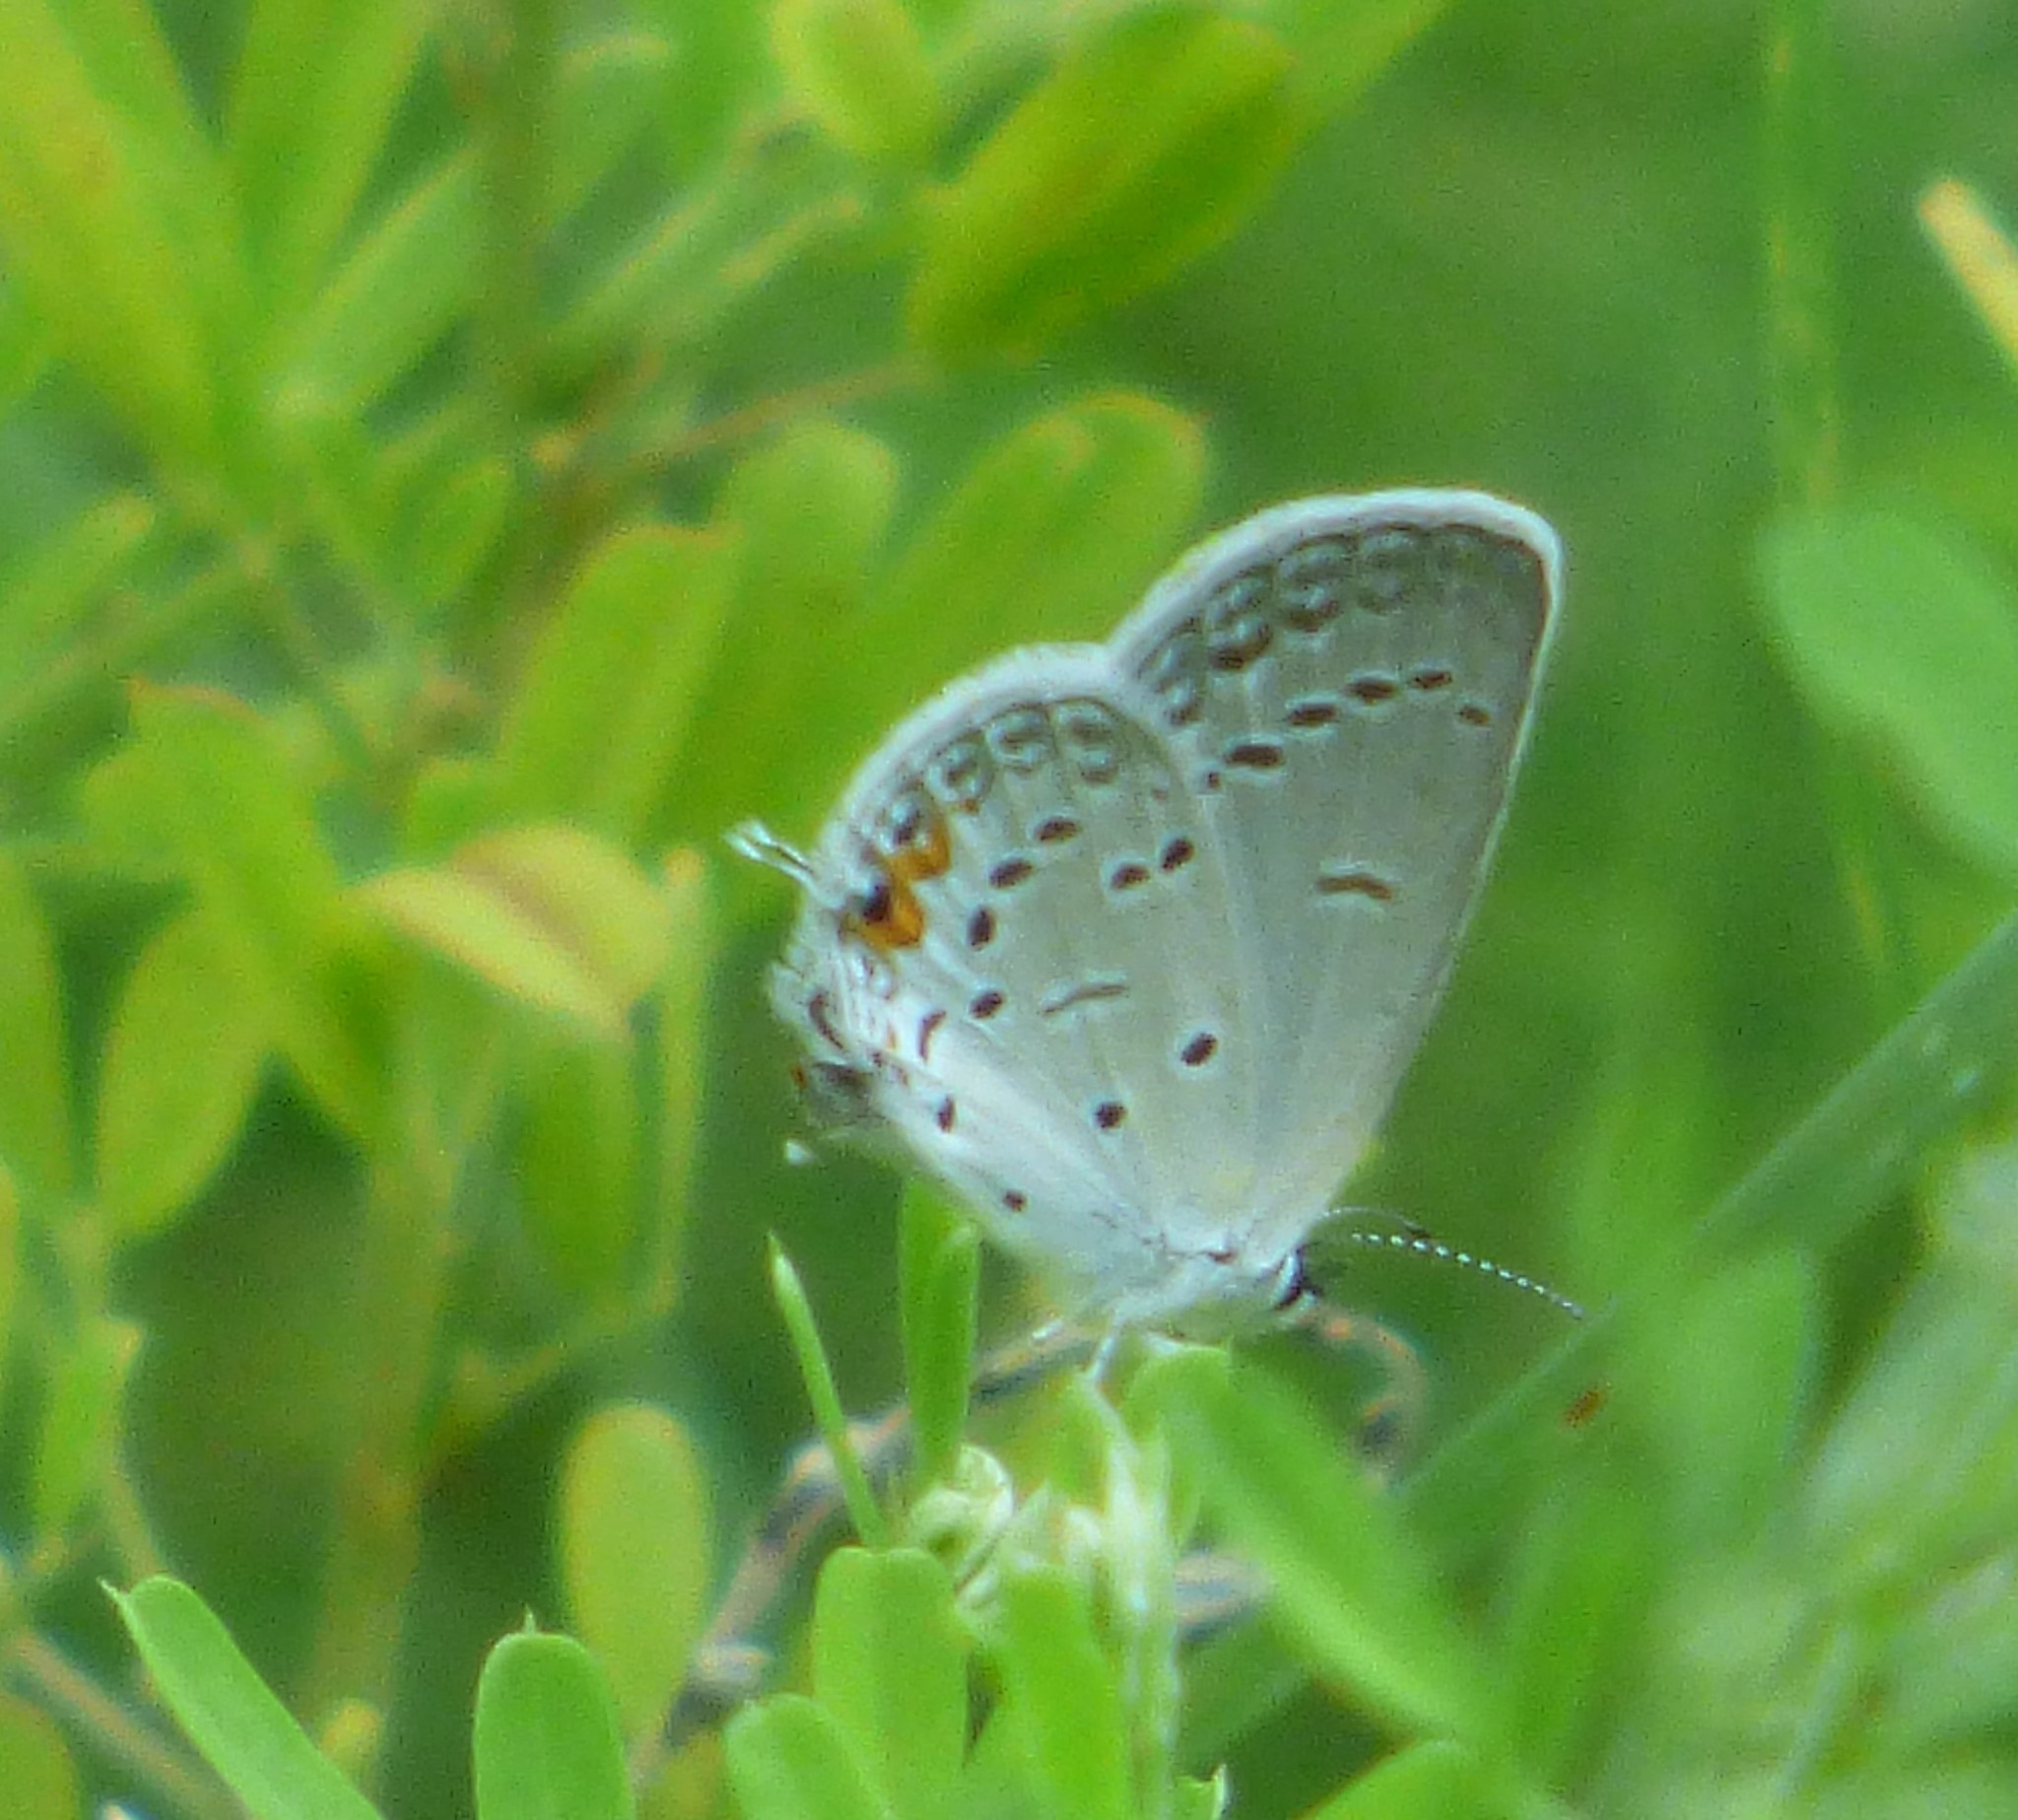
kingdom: Animalia
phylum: Arthropoda
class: Insecta
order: Lepidoptera
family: Lycaenidae
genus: Elkalyce
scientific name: Elkalyce comyntas
